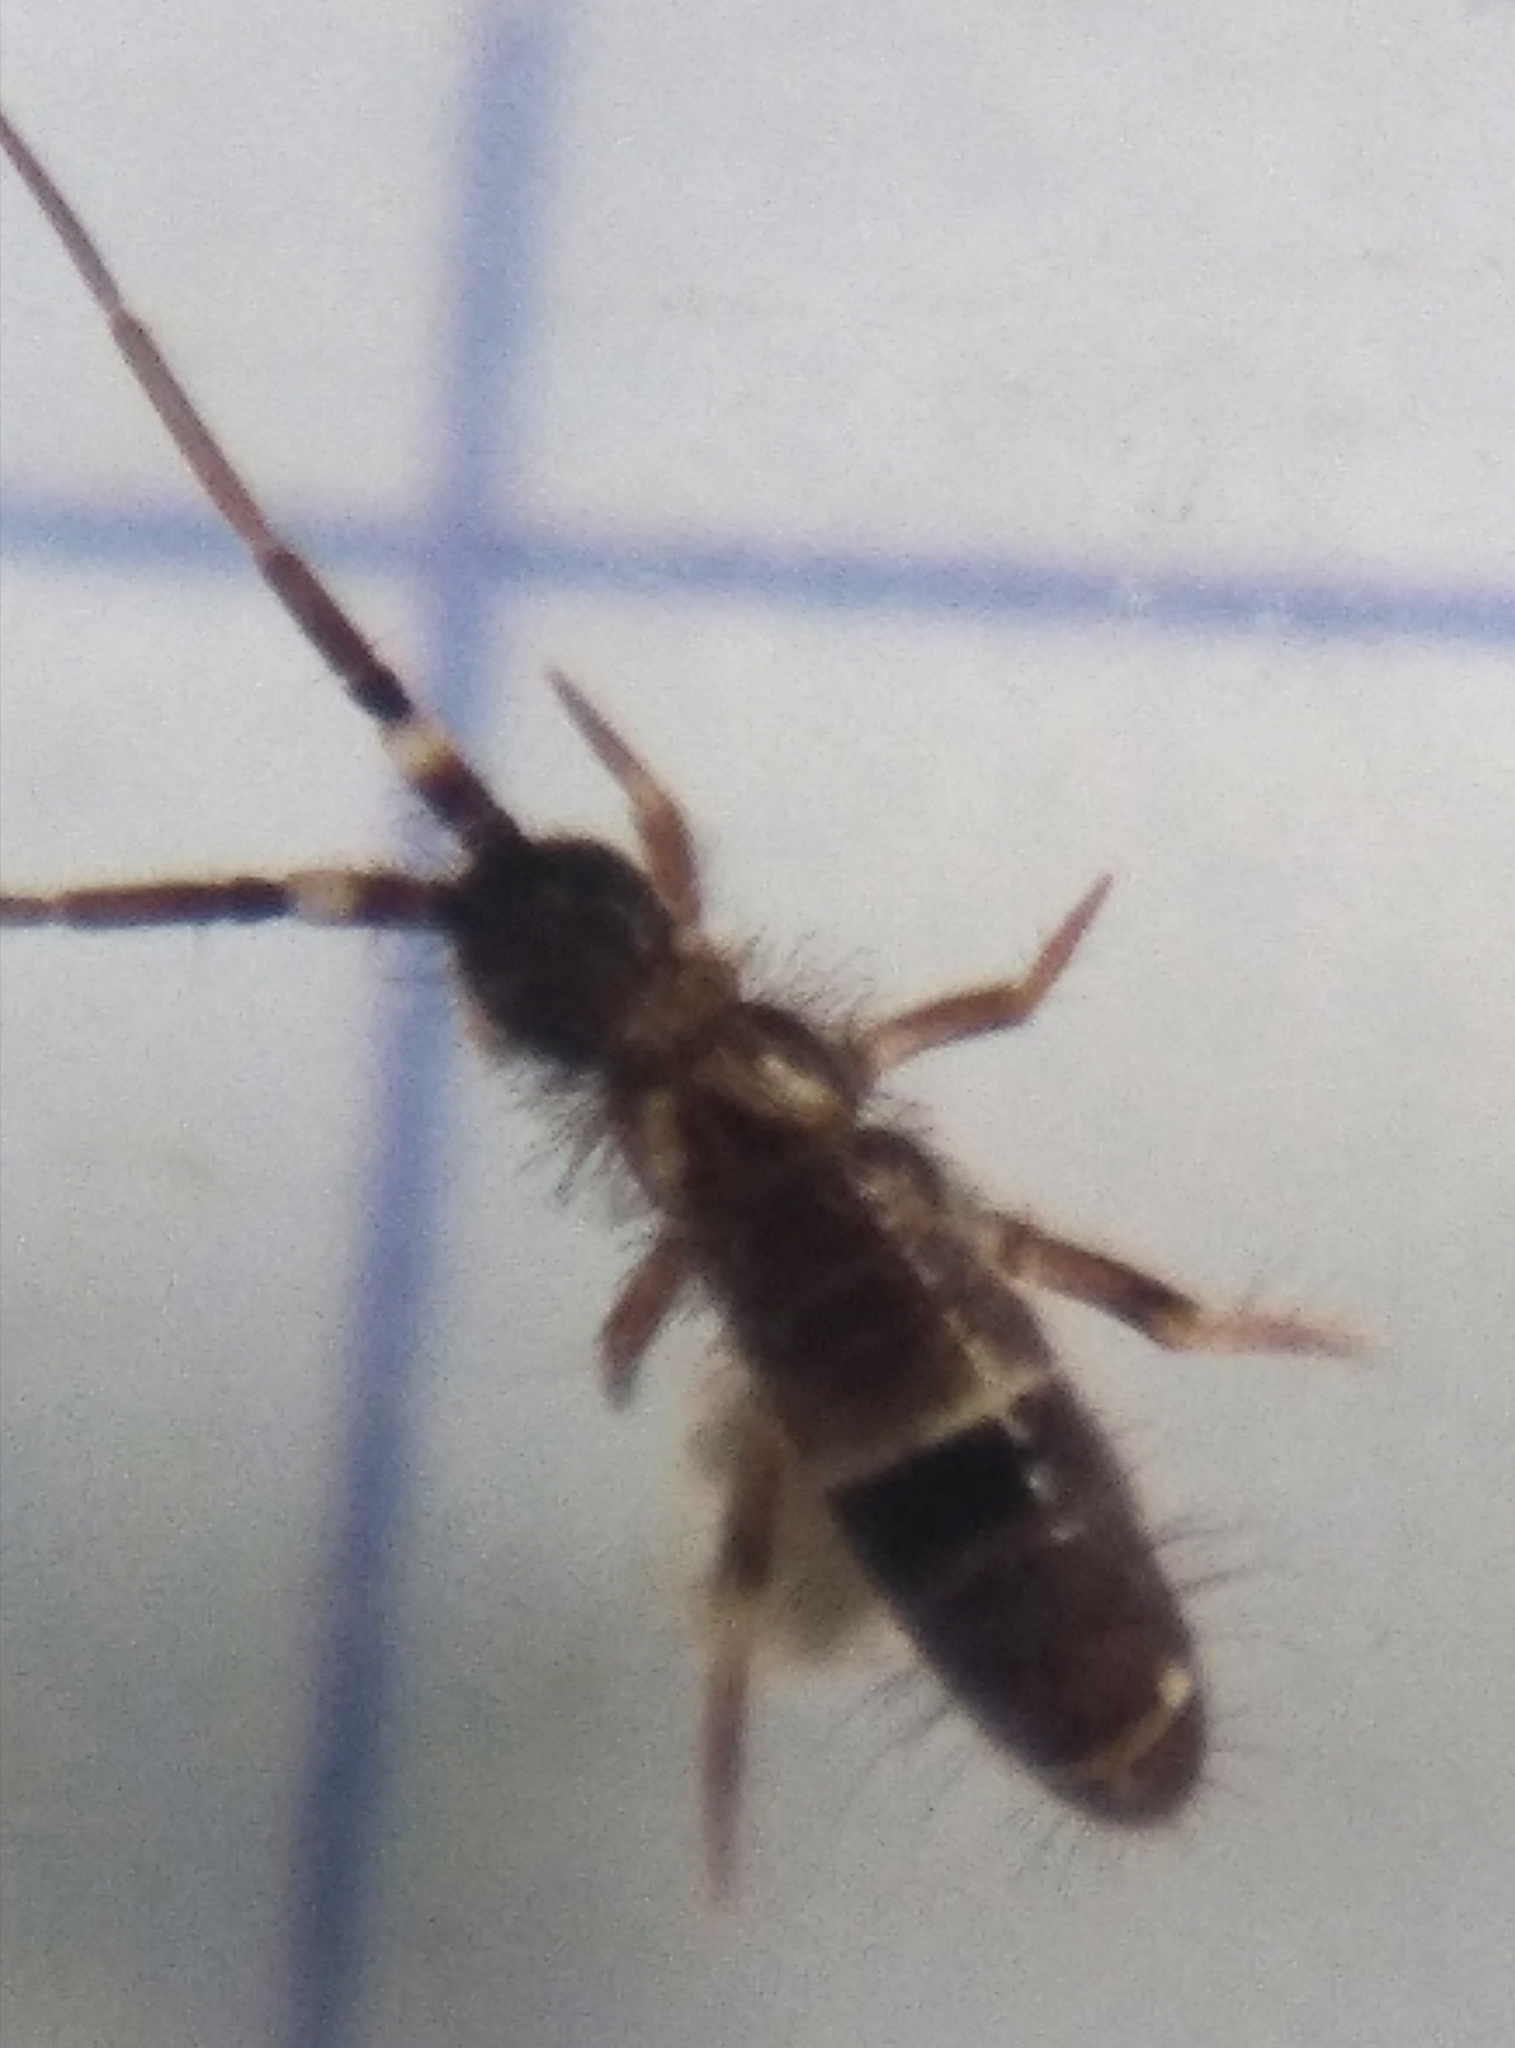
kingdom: Animalia
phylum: Arthropoda
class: Collembola
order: Entomobryomorpha
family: Orchesellidae
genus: Orchesella
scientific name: Orchesella cincta
